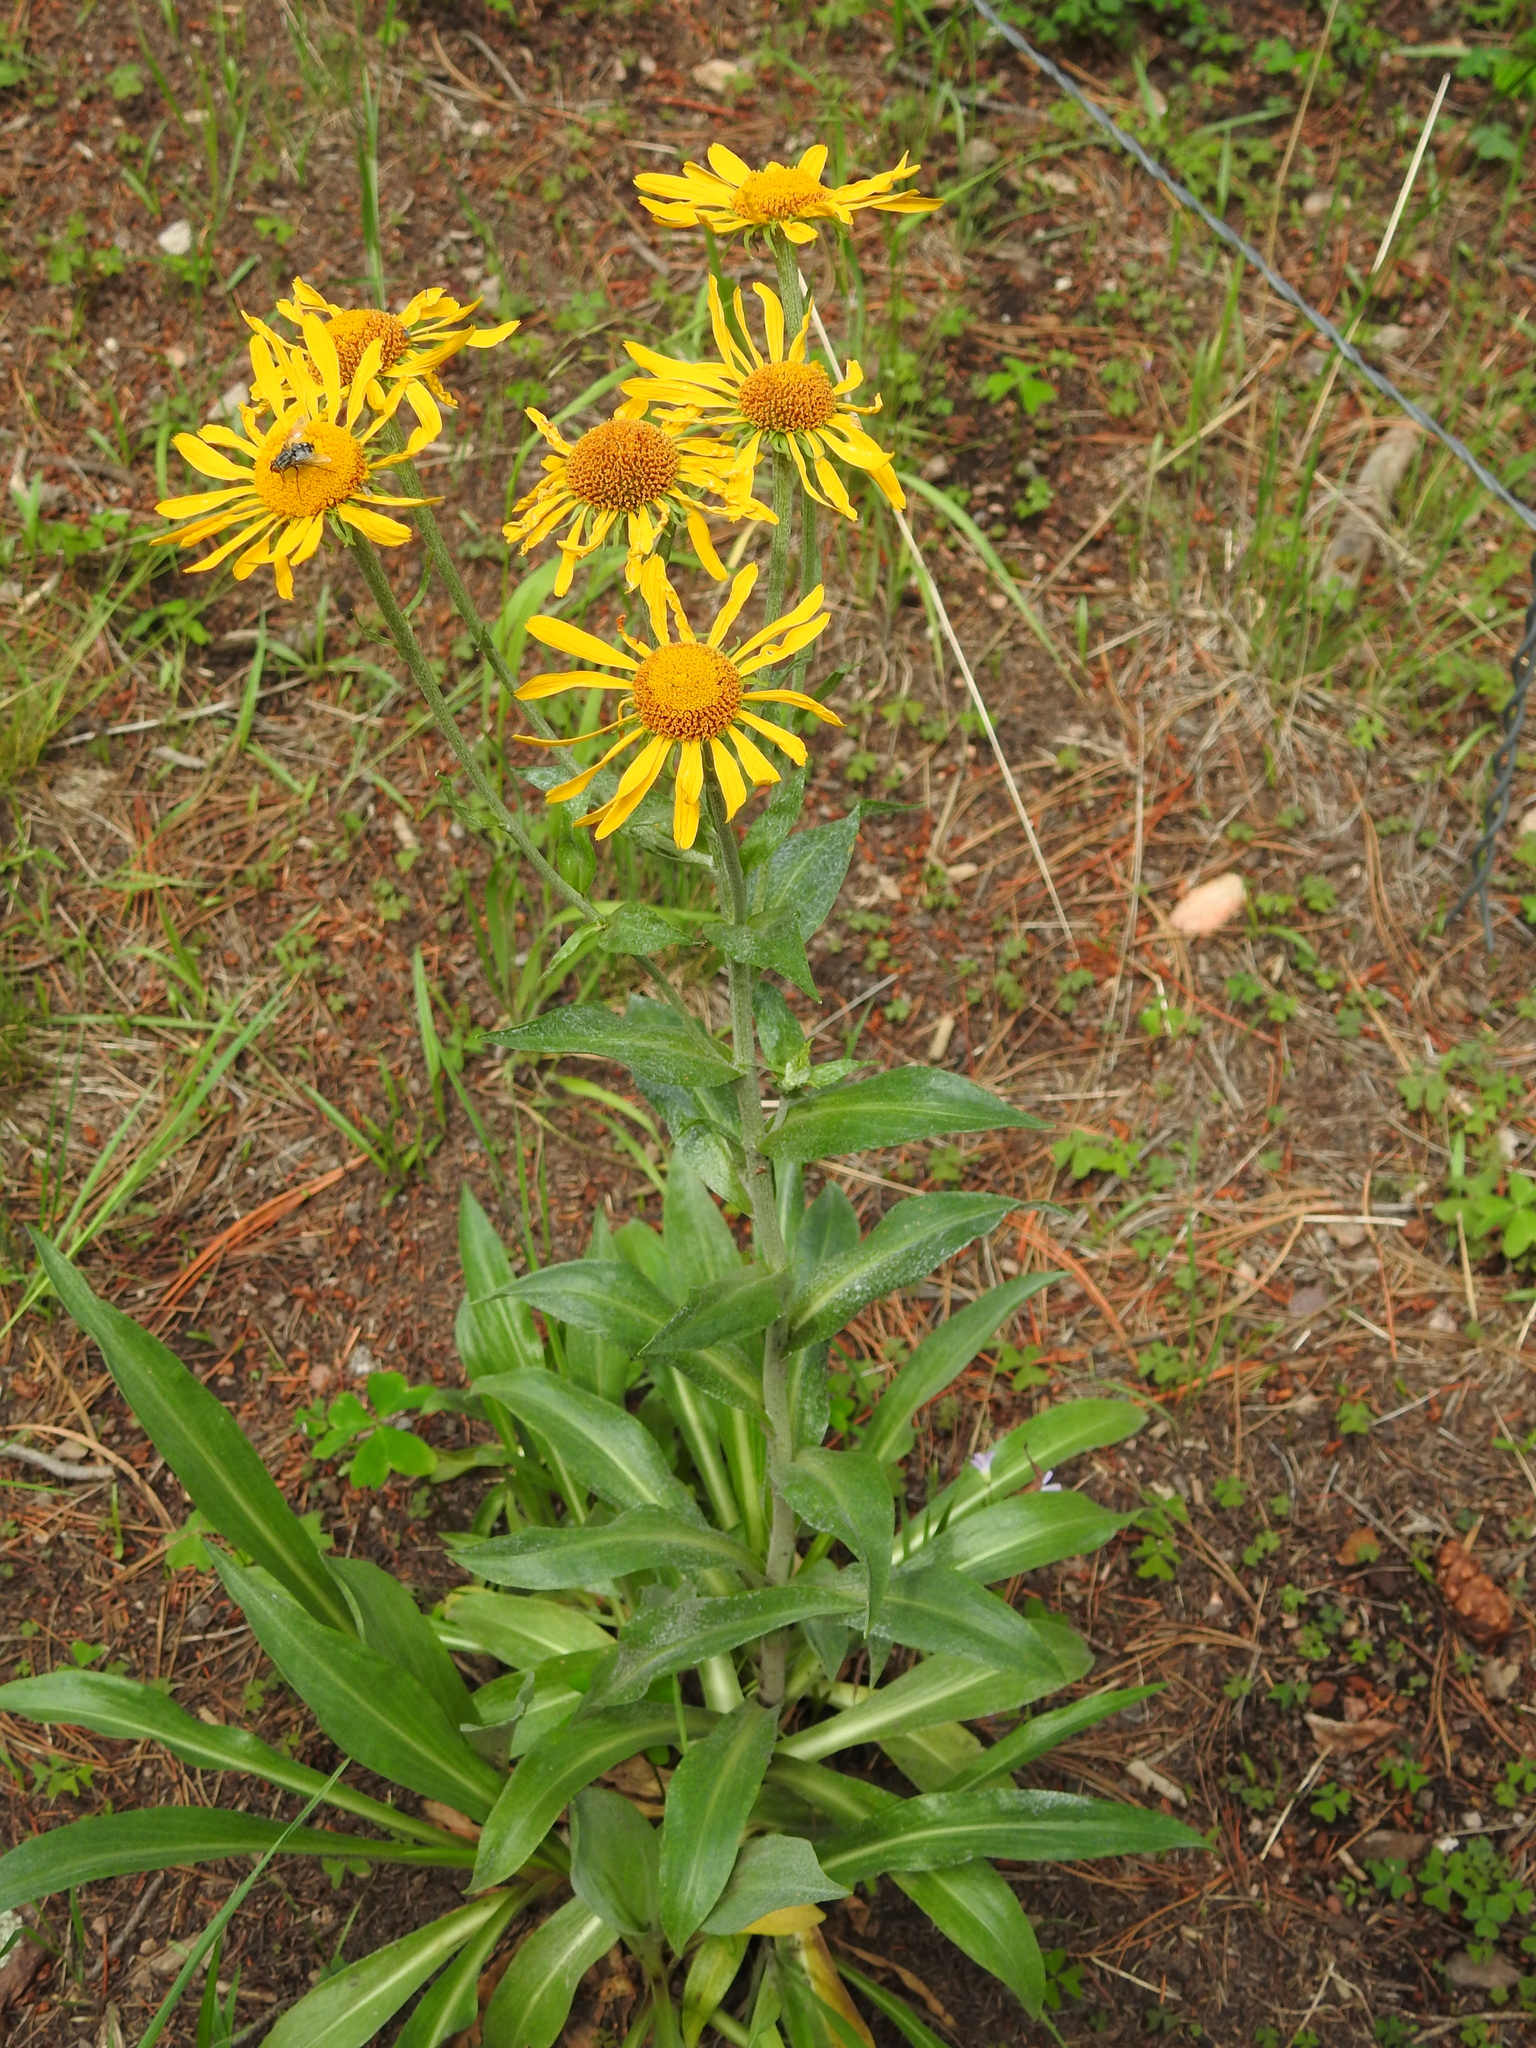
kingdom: Plantae
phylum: Tracheophyta
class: Magnoliopsida
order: Asterales
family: Asteraceae
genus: Hymenoxys
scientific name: Hymenoxys hoopesii
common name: Orange-sneezeweed
